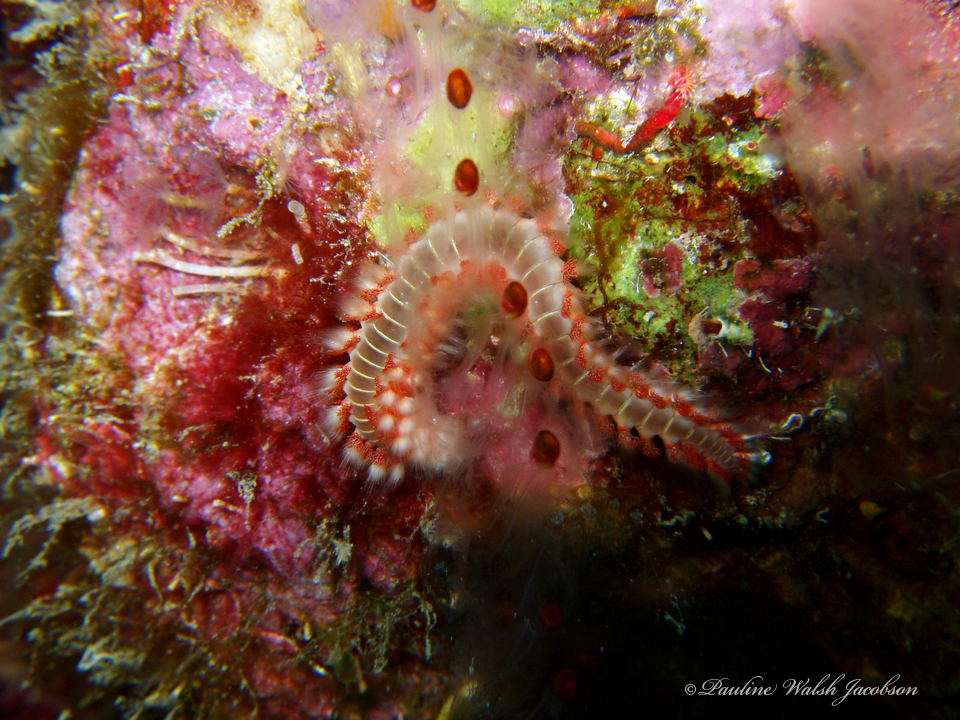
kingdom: Animalia
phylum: Annelida
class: Polychaeta
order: Amphinomida
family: Amphinomidae
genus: Hermodice
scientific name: Hermodice carunculata
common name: Bearded fireworm
